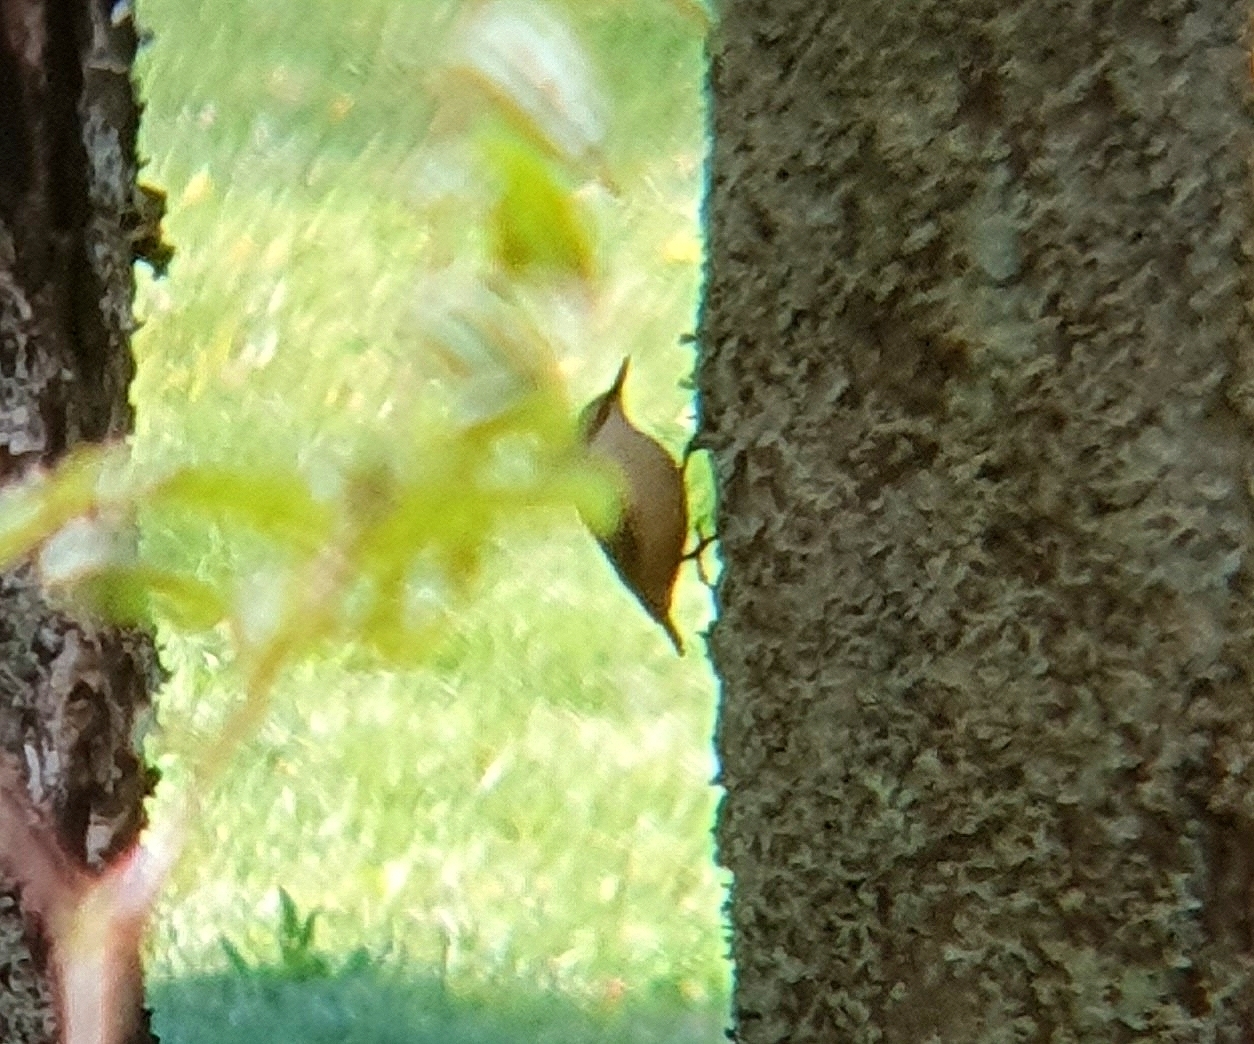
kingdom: Animalia
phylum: Chordata
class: Aves
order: Passeriformes
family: Sittidae
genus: Sitta
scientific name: Sitta europaea
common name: Eurasian nuthatch
